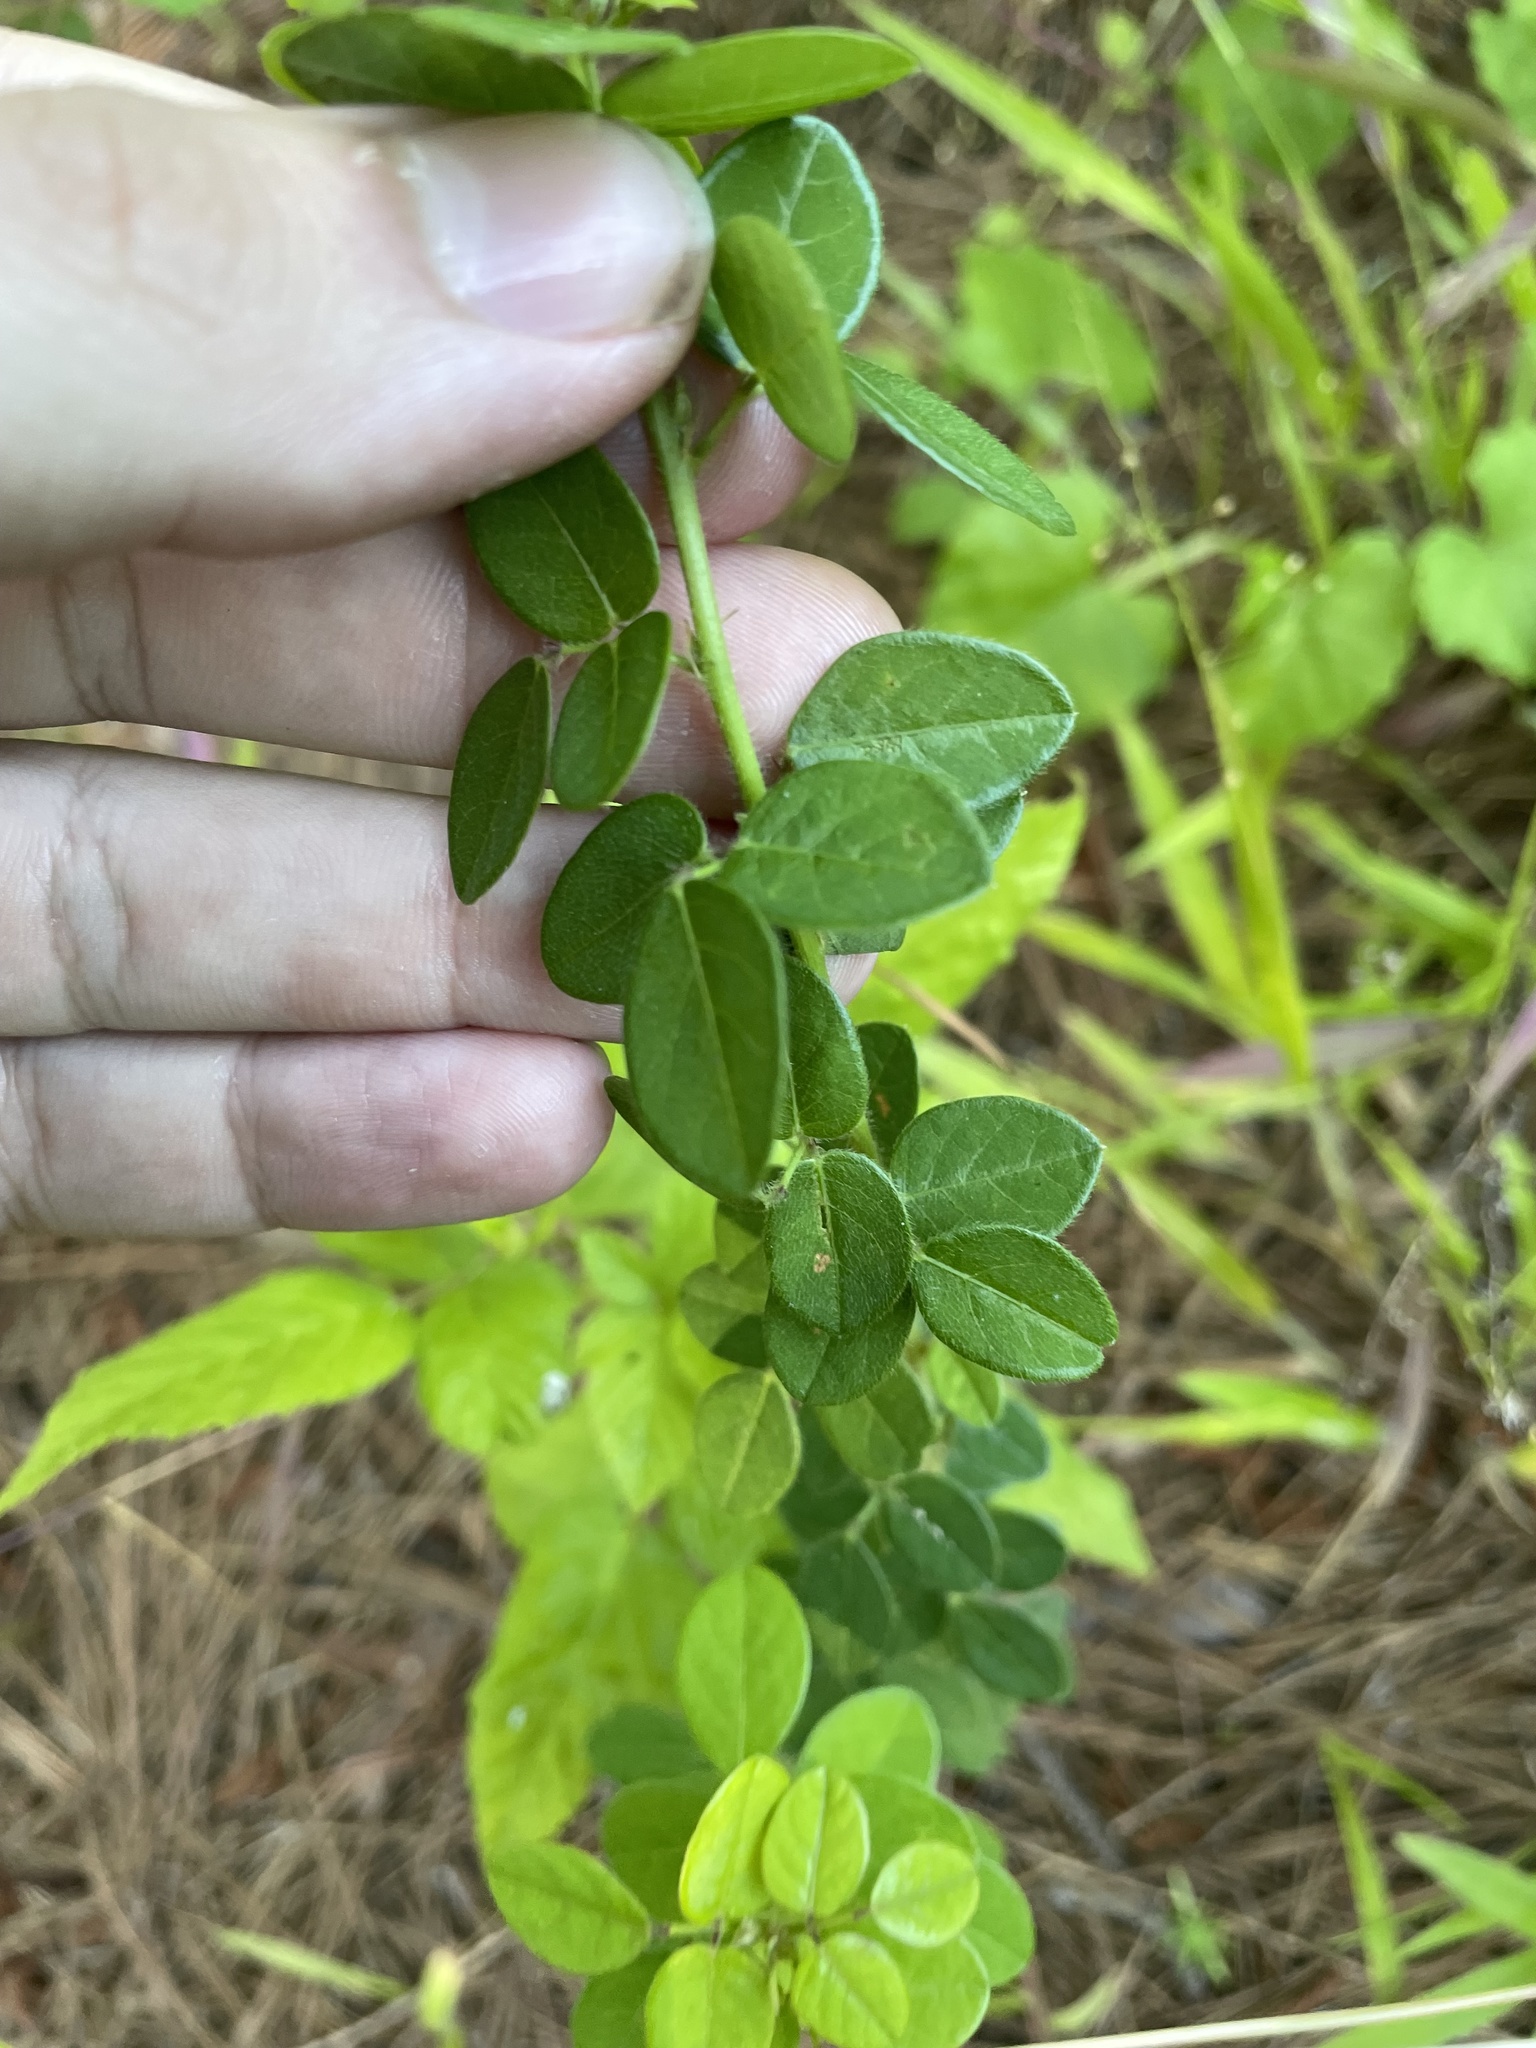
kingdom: Plantae
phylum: Tracheophyta
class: Magnoliopsida
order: Fabales
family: Fabaceae
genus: Desmodium
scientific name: Desmodium ciliare
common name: Hairy small-leaf ticktrefoil
